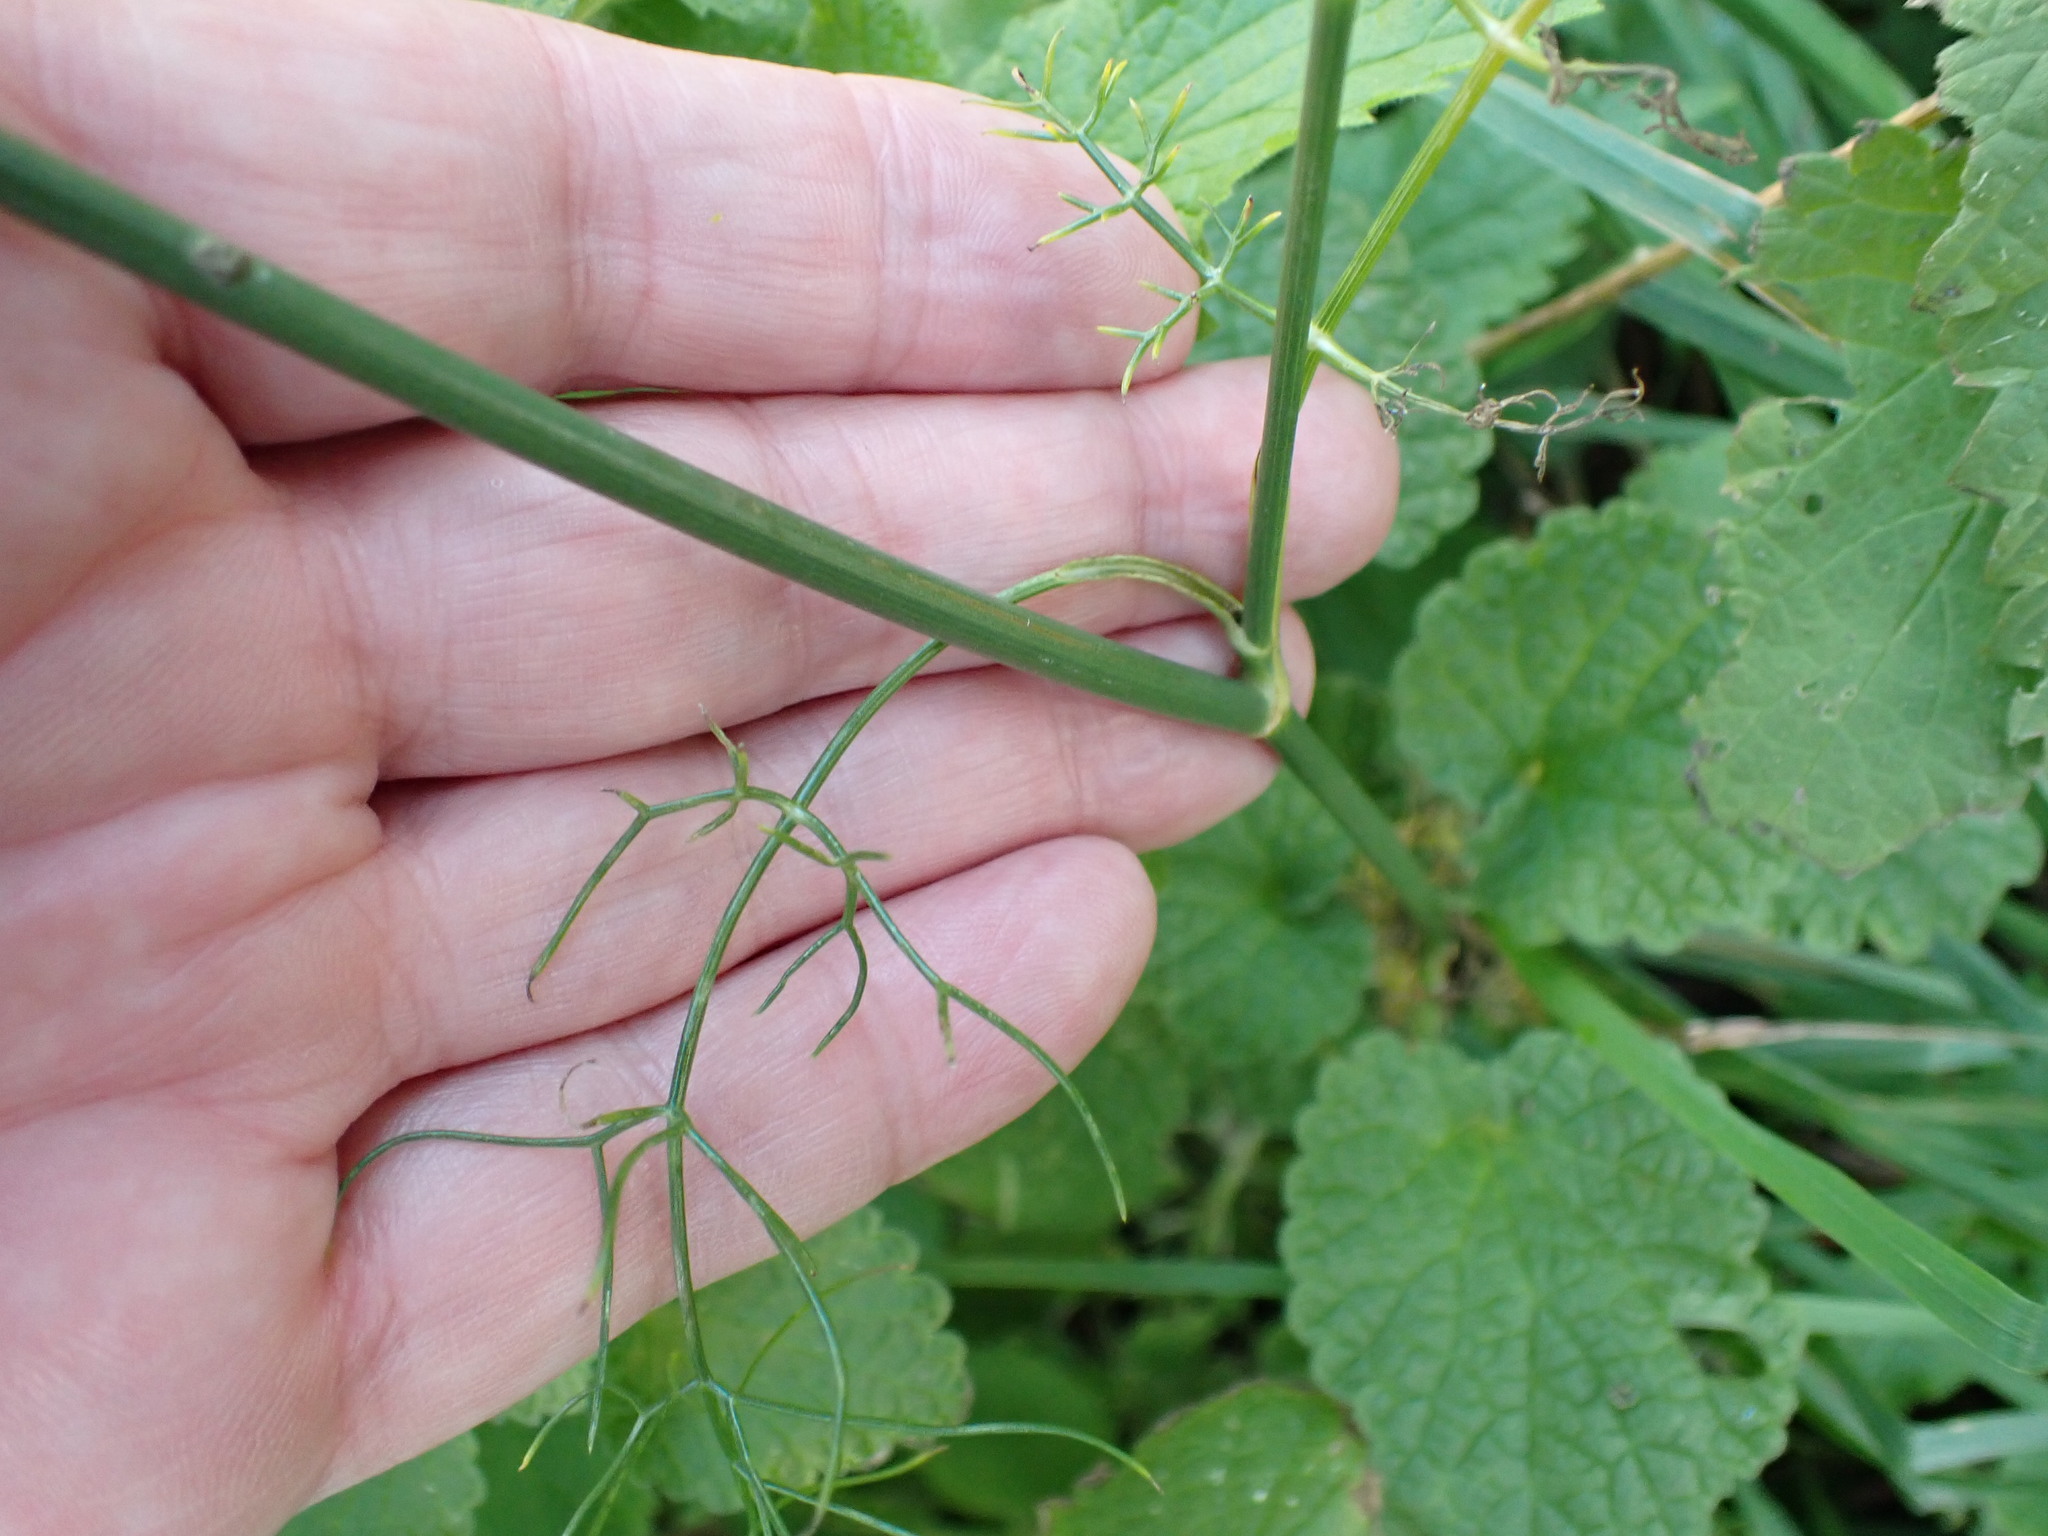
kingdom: Plantae
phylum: Tracheophyta
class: Magnoliopsida
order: Apiales
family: Apiaceae
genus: Foeniculum
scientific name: Foeniculum vulgare
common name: Fennel
